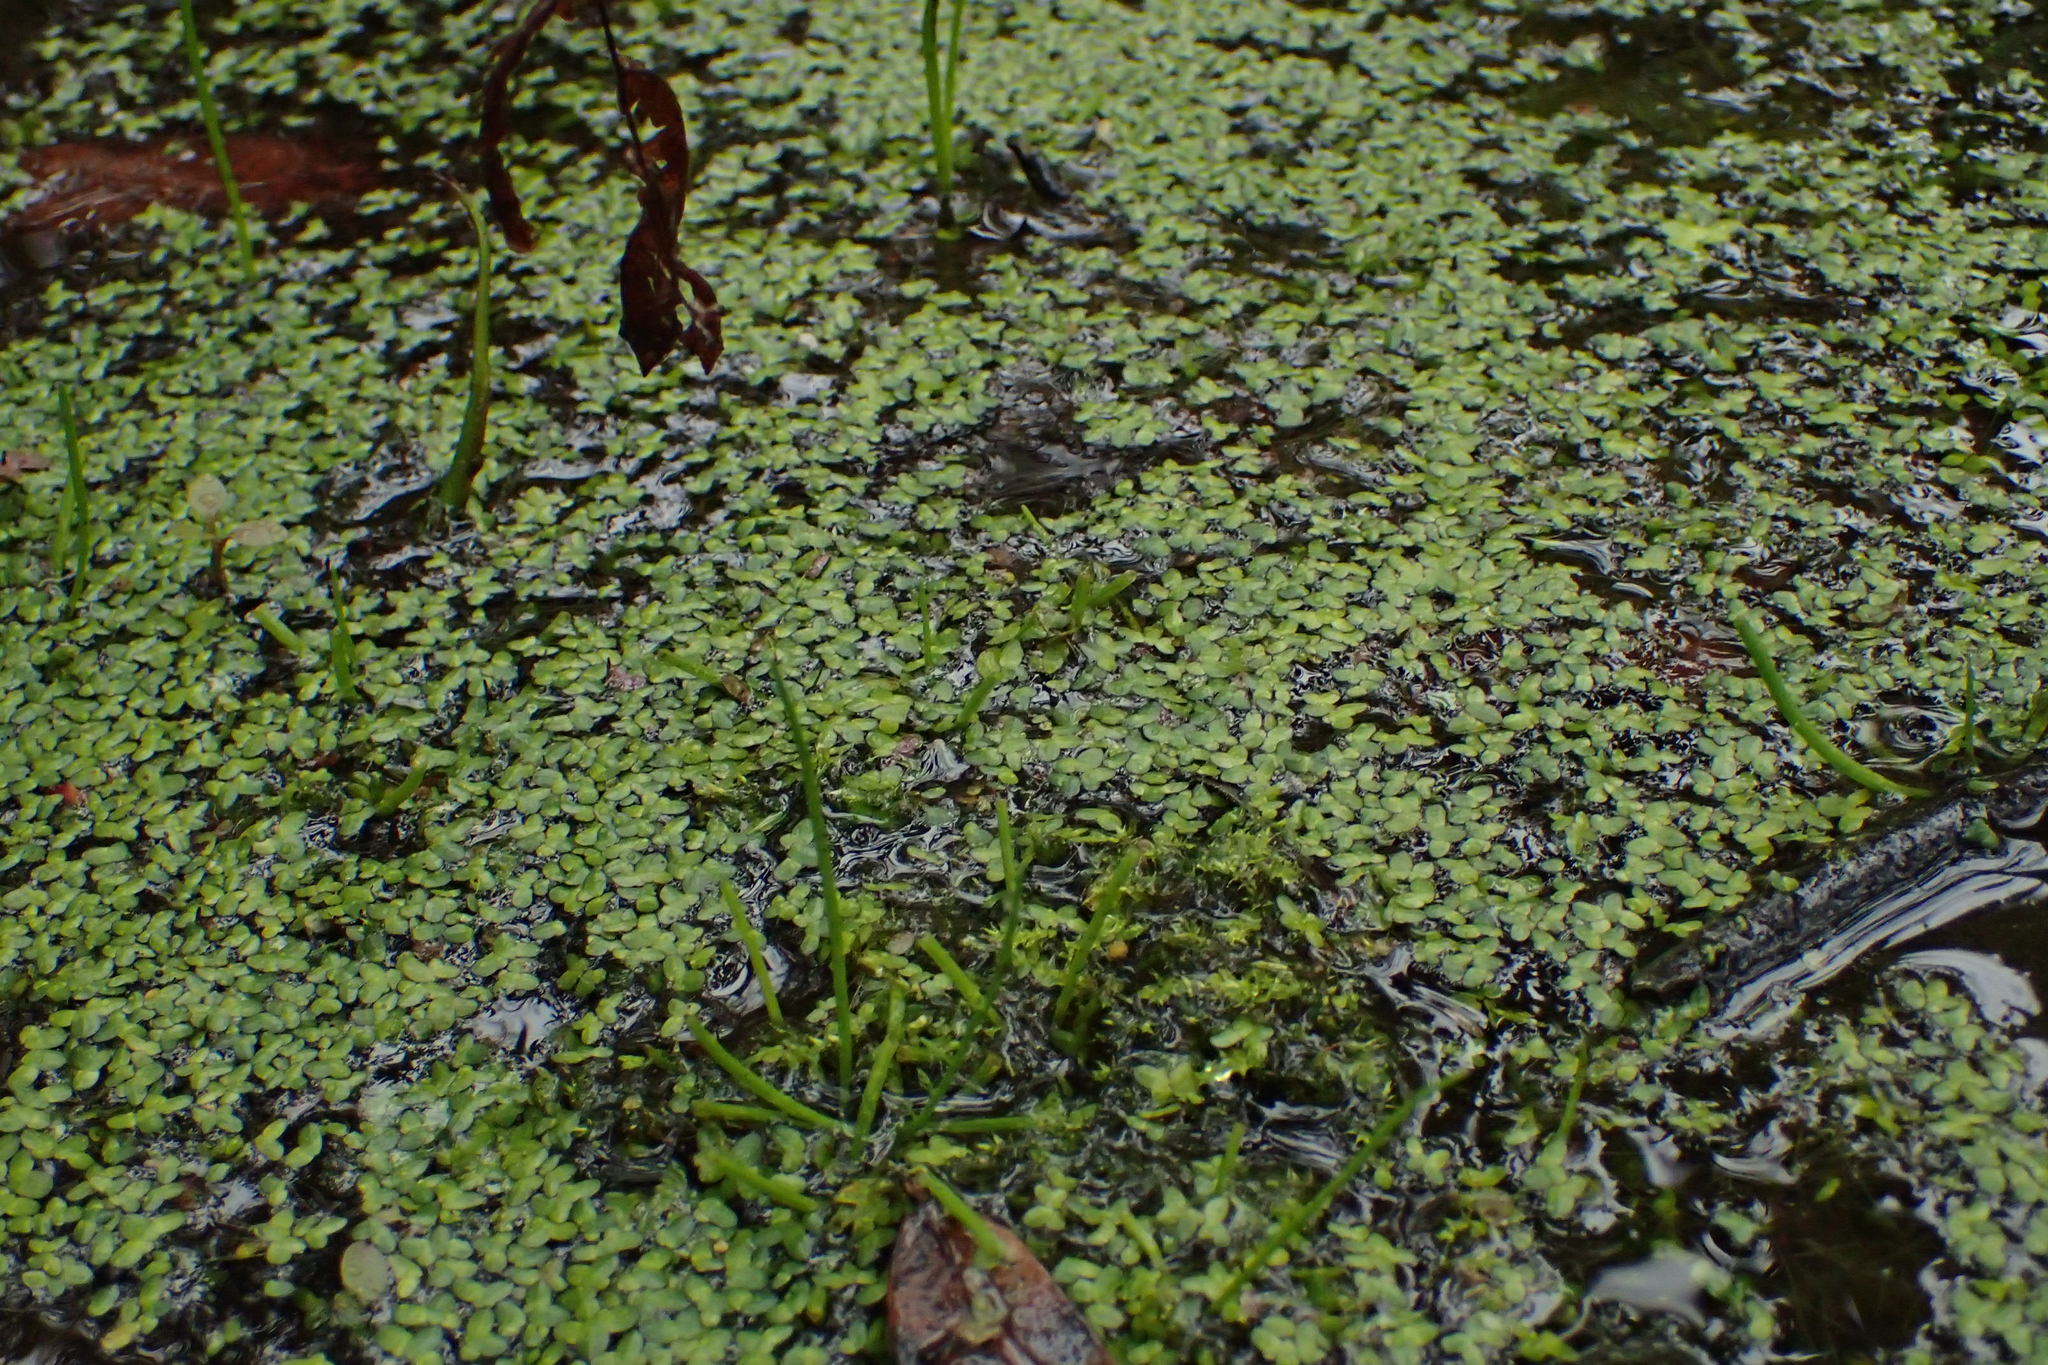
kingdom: Plantae
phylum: Tracheophyta
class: Liliopsida
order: Alismatales
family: Araceae
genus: Lemna
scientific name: Lemna minor
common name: Common duckweed
